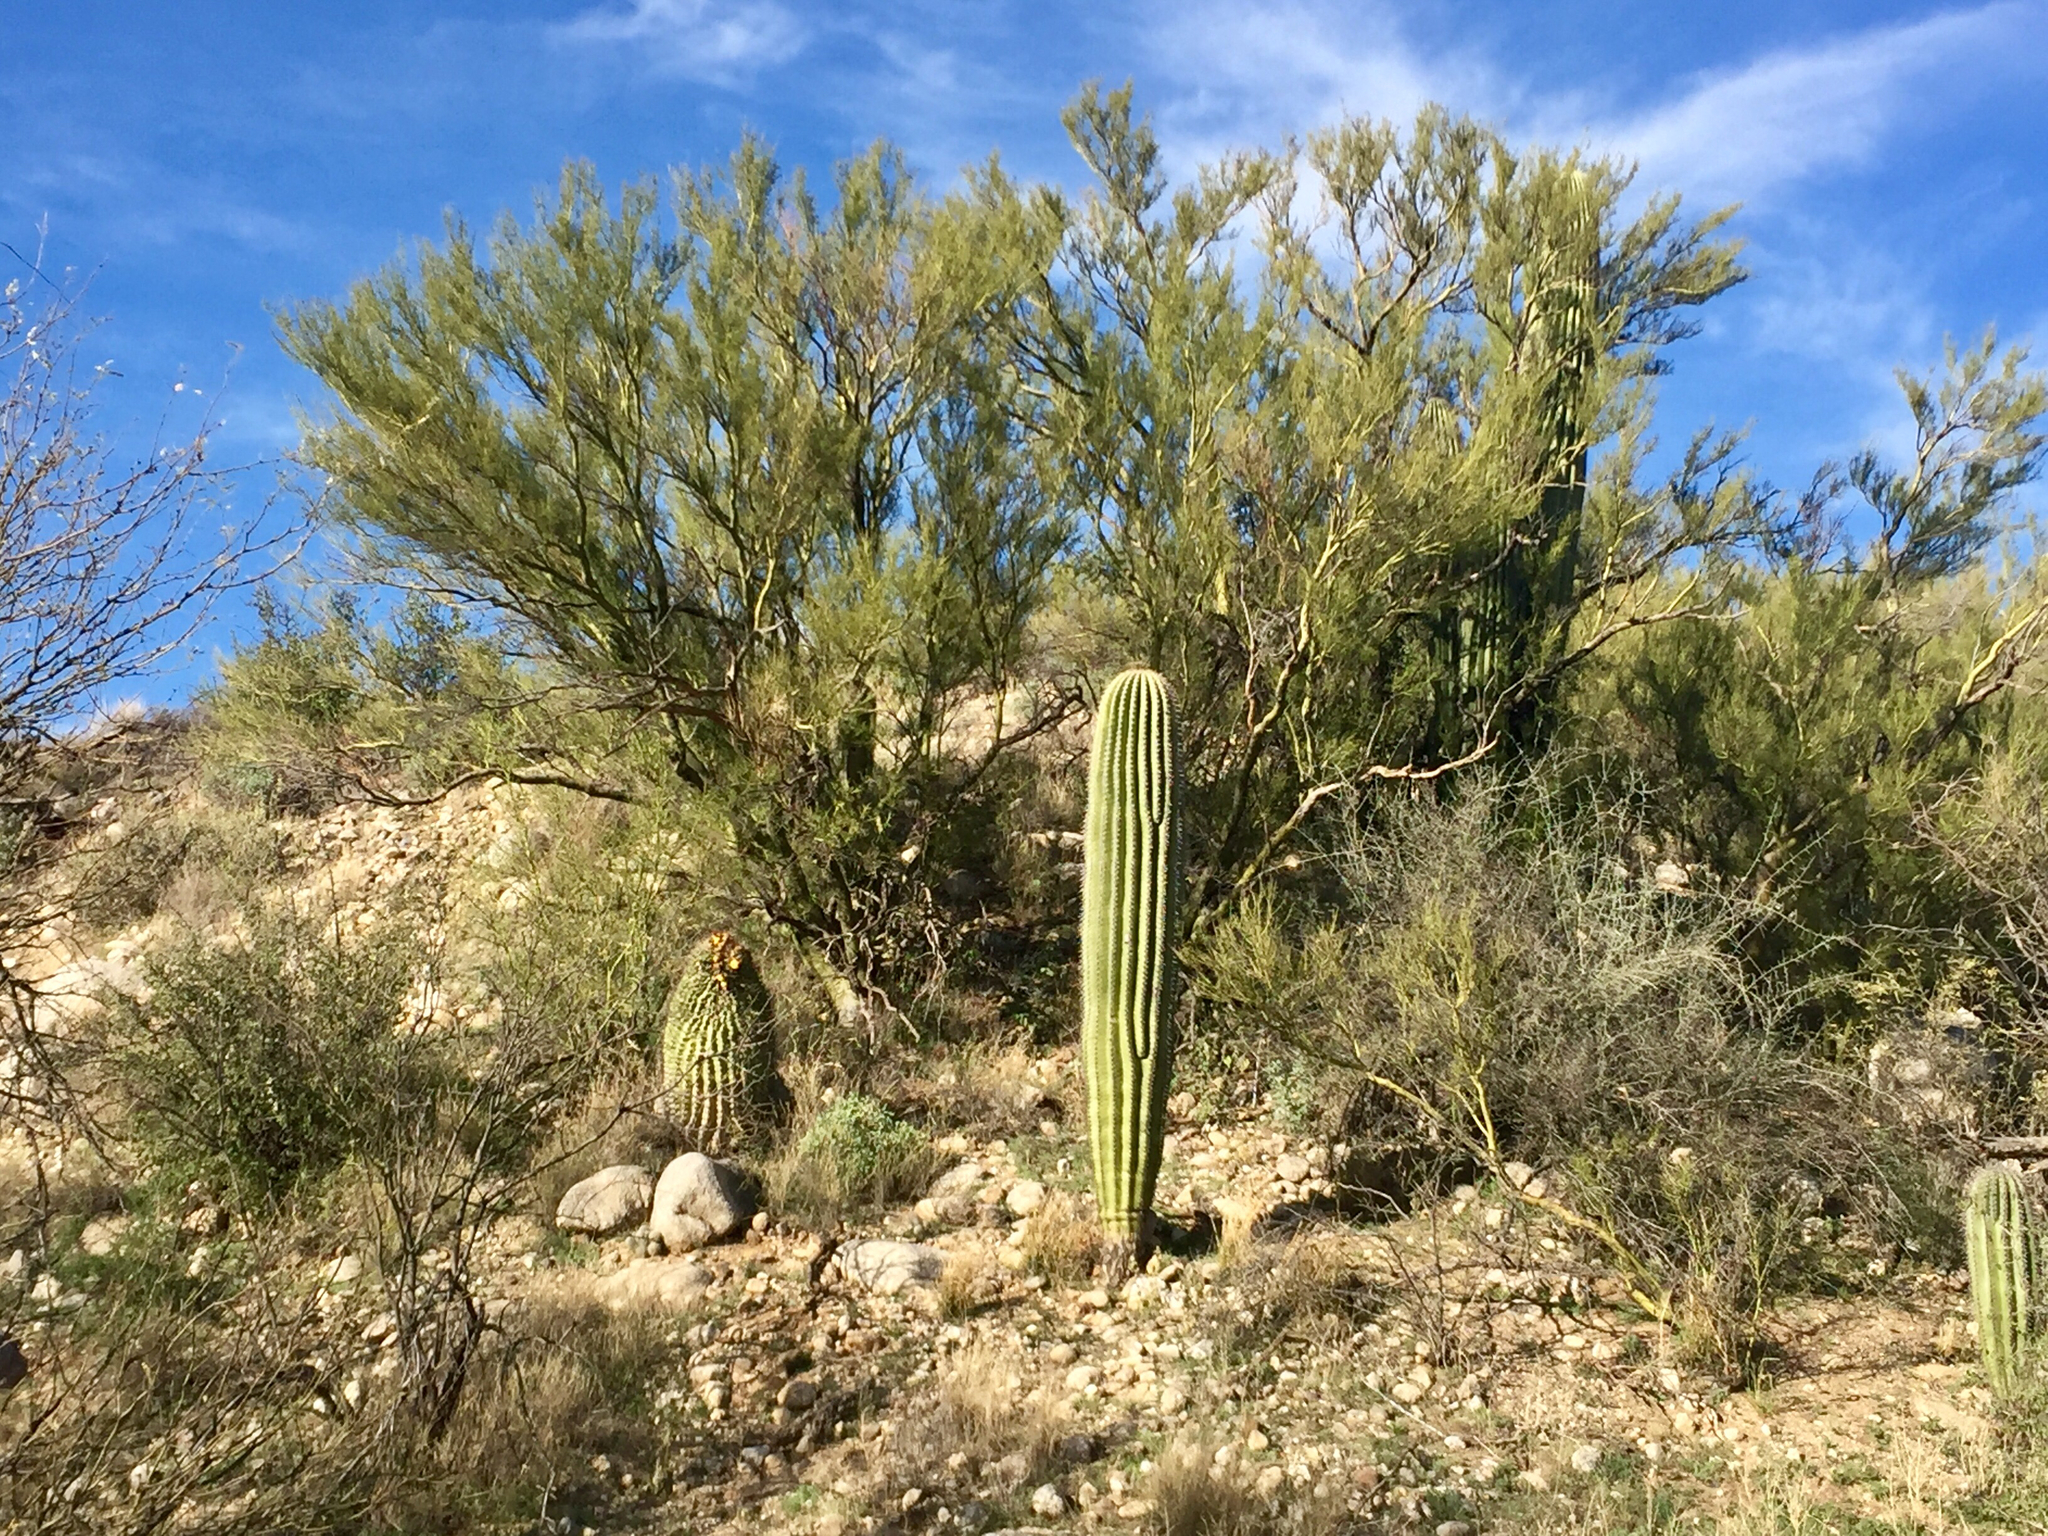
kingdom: Plantae
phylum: Tracheophyta
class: Magnoliopsida
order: Fabales
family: Fabaceae
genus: Parkinsonia
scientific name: Parkinsonia microphylla
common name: Yellow paloverde
